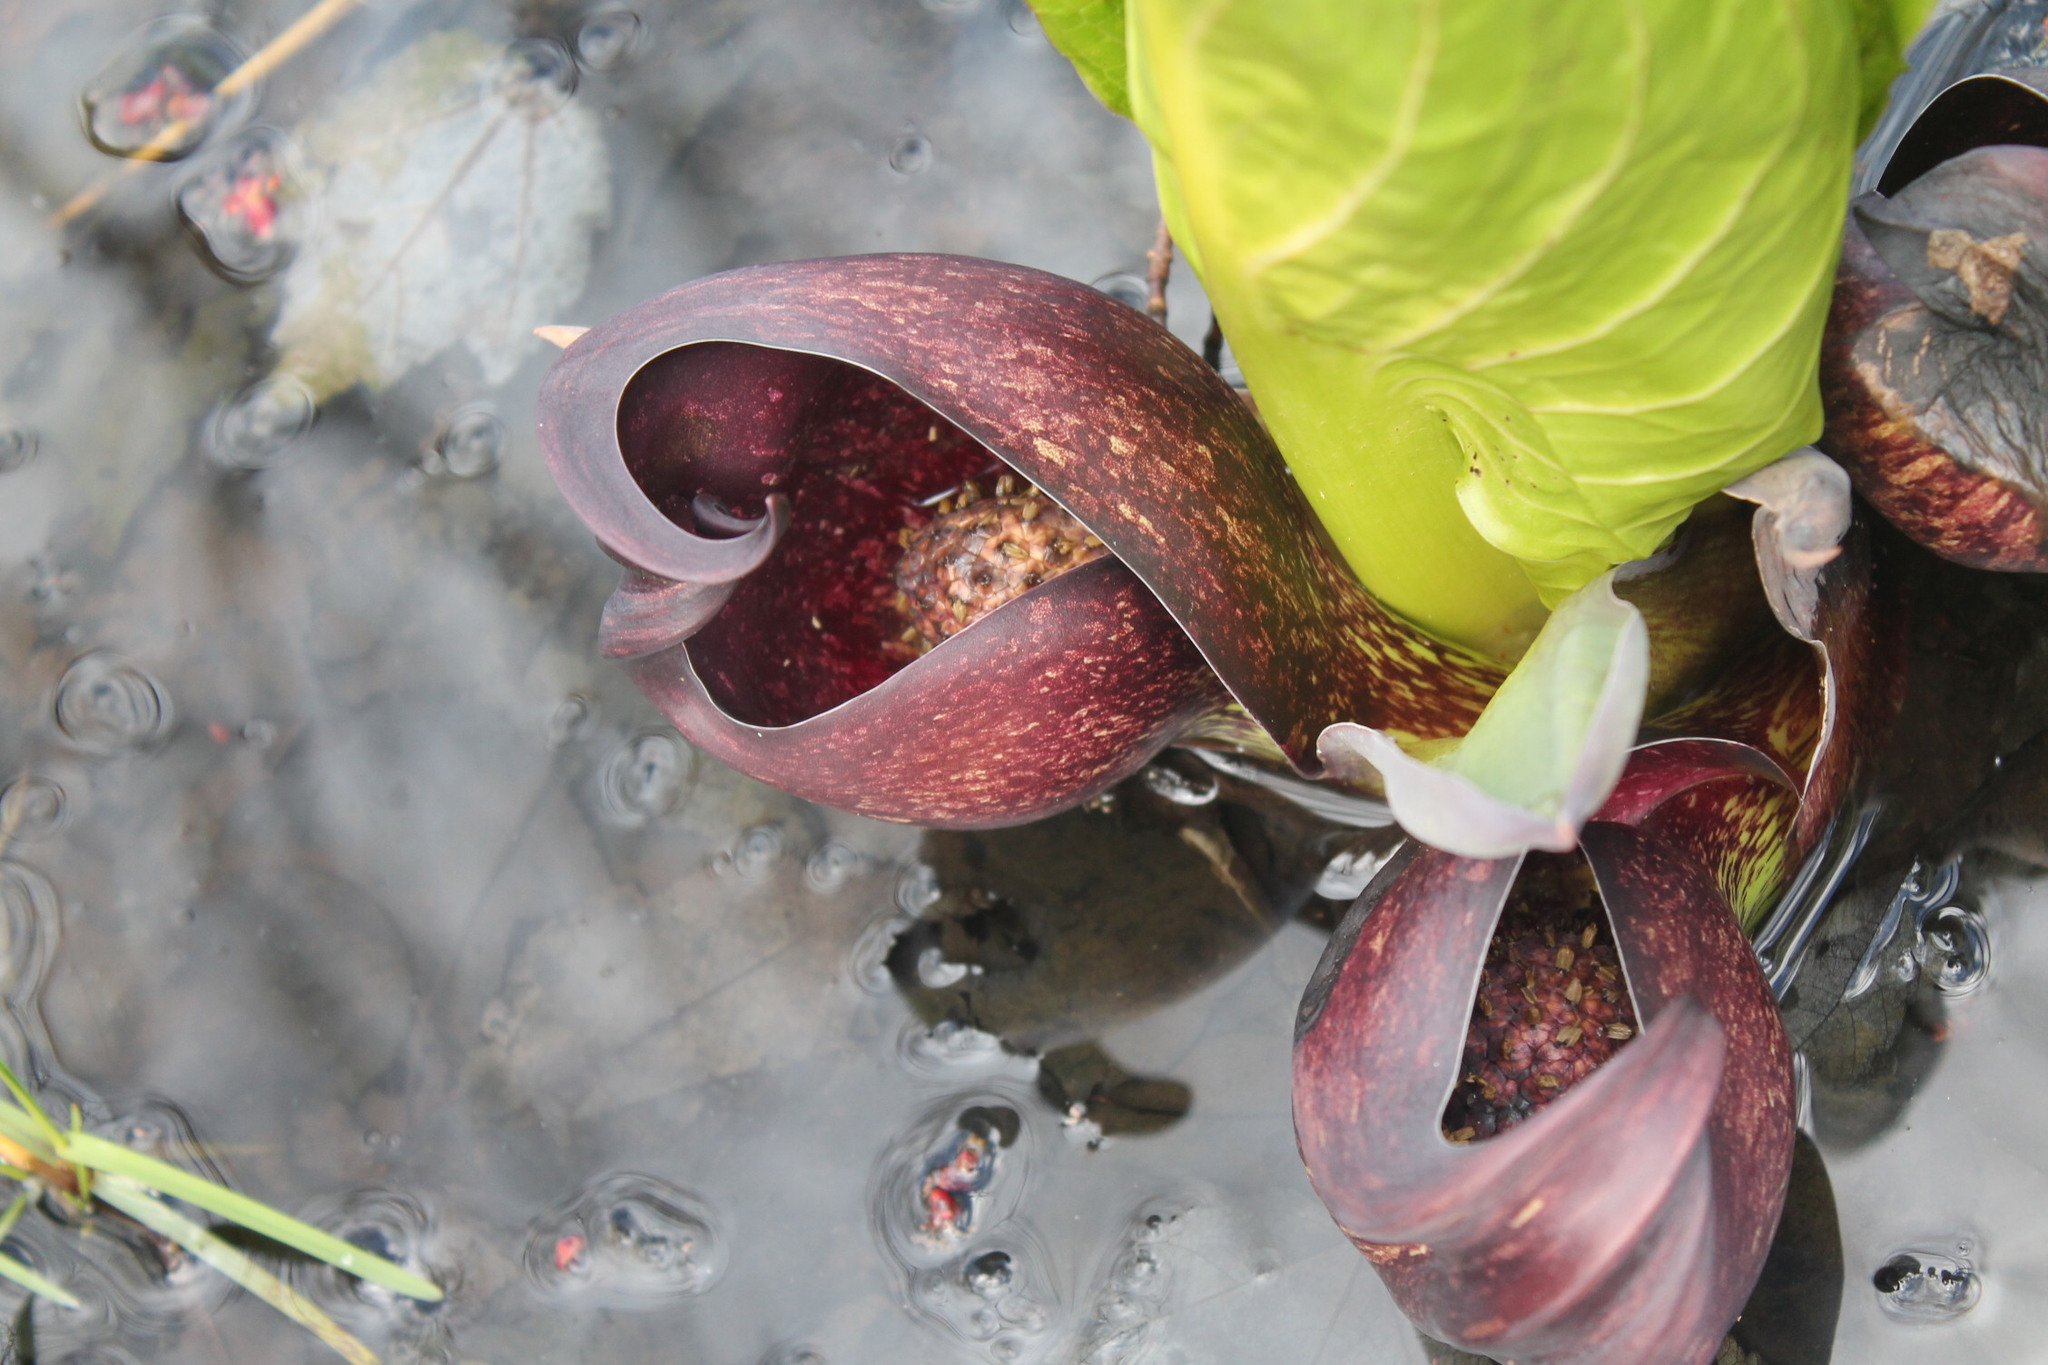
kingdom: Plantae
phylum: Tracheophyta
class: Liliopsida
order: Alismatales
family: Araceae
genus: Symplocarpus
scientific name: Symplocarpus foetidus
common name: Eastern skunk cabbage
